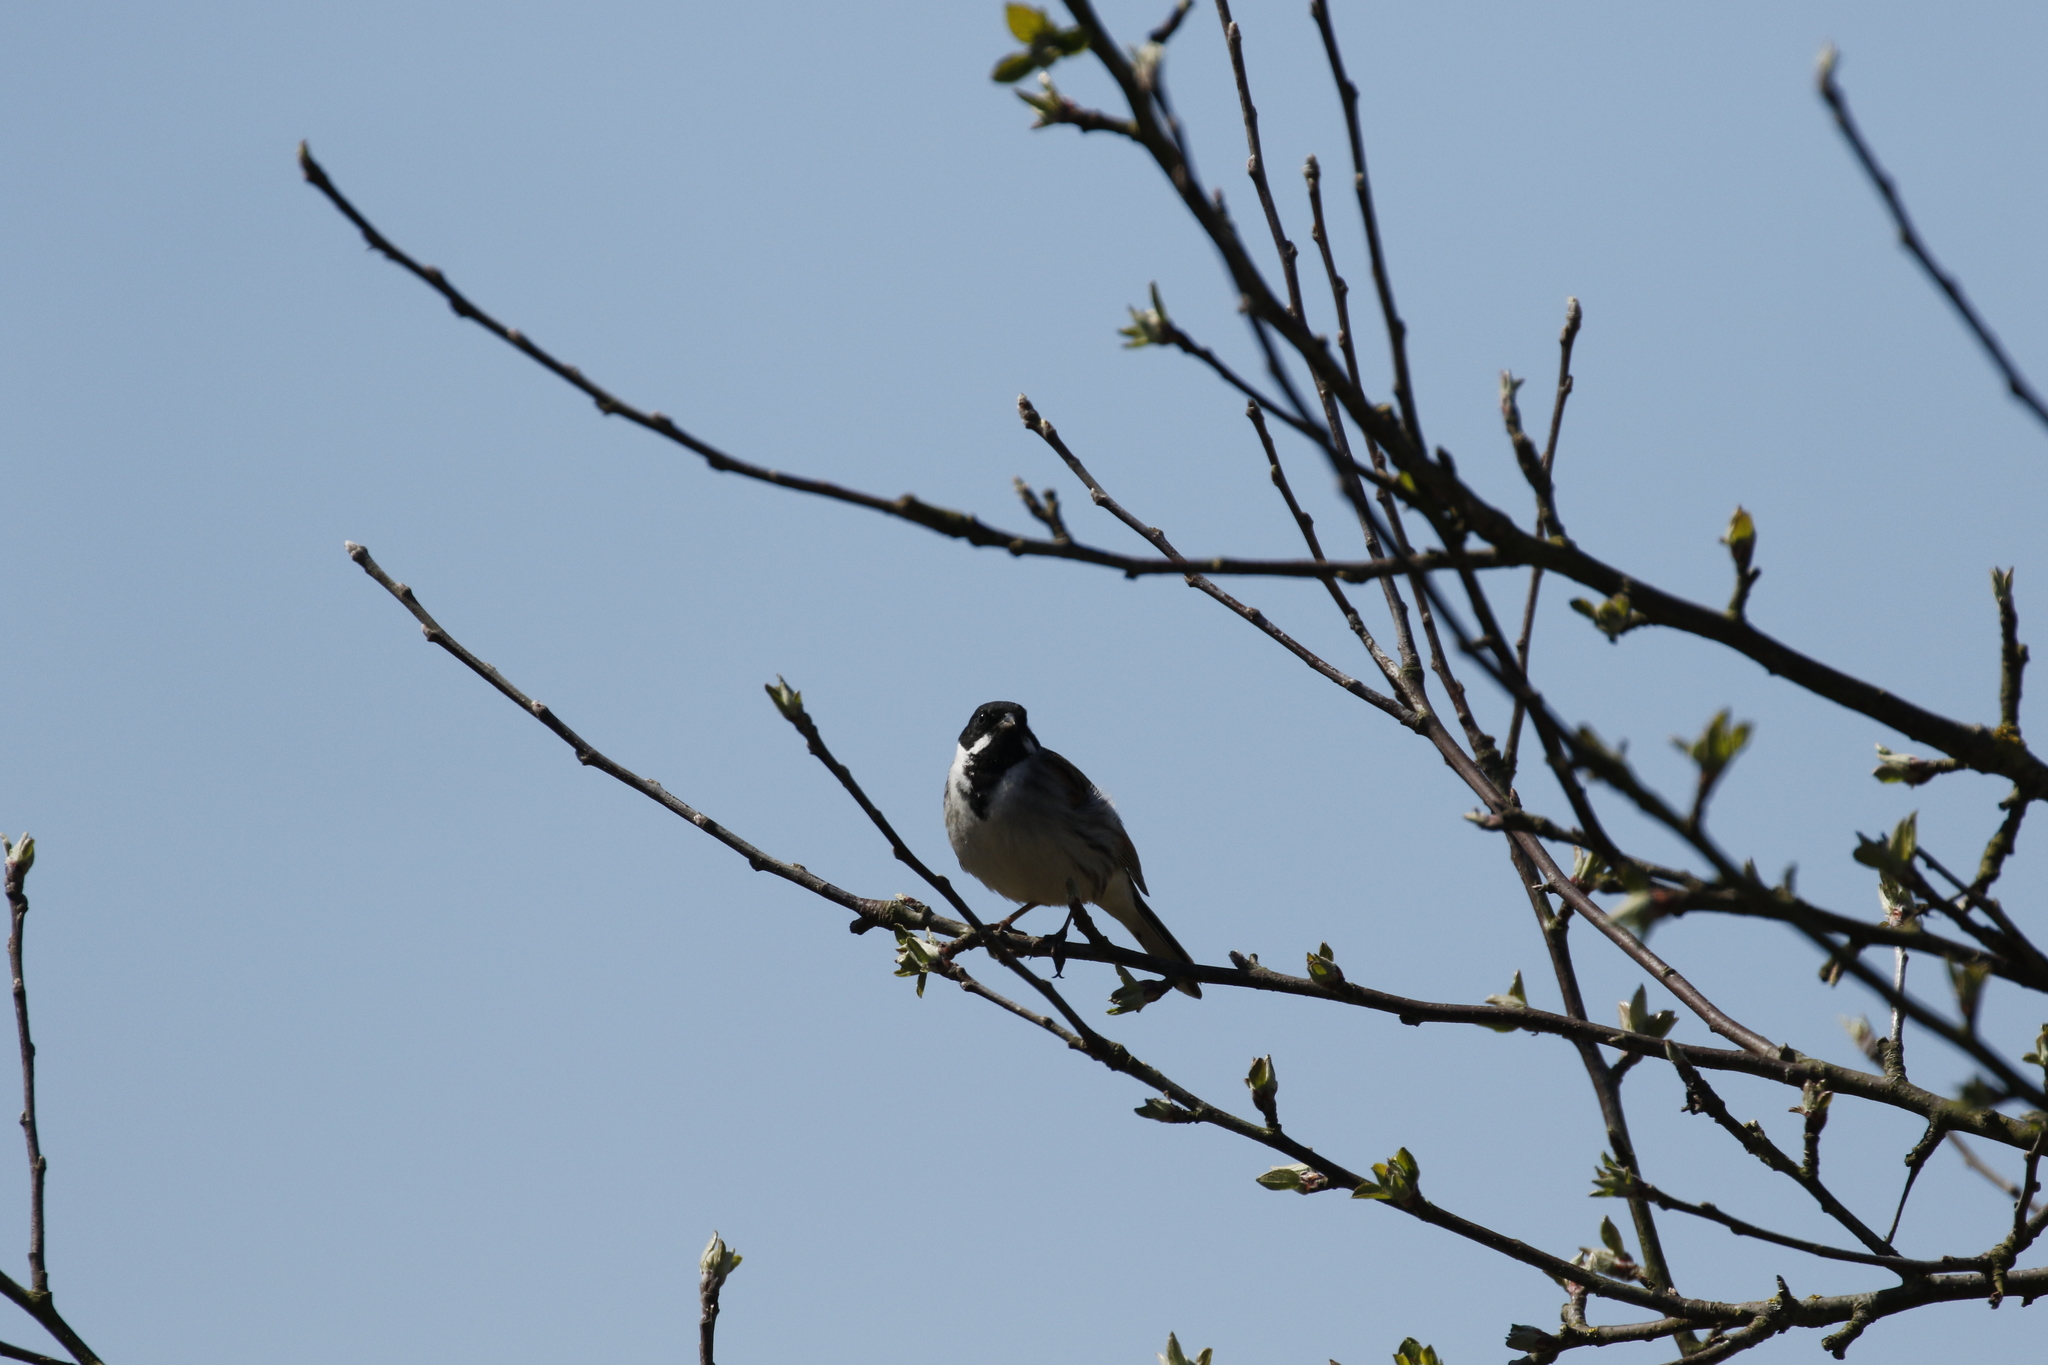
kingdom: Animalia
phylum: Chordata
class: Aves
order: Passeriformes
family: Emberizidae
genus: Emberiza
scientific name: Emberiza schoeniclus
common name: Reed bunting
